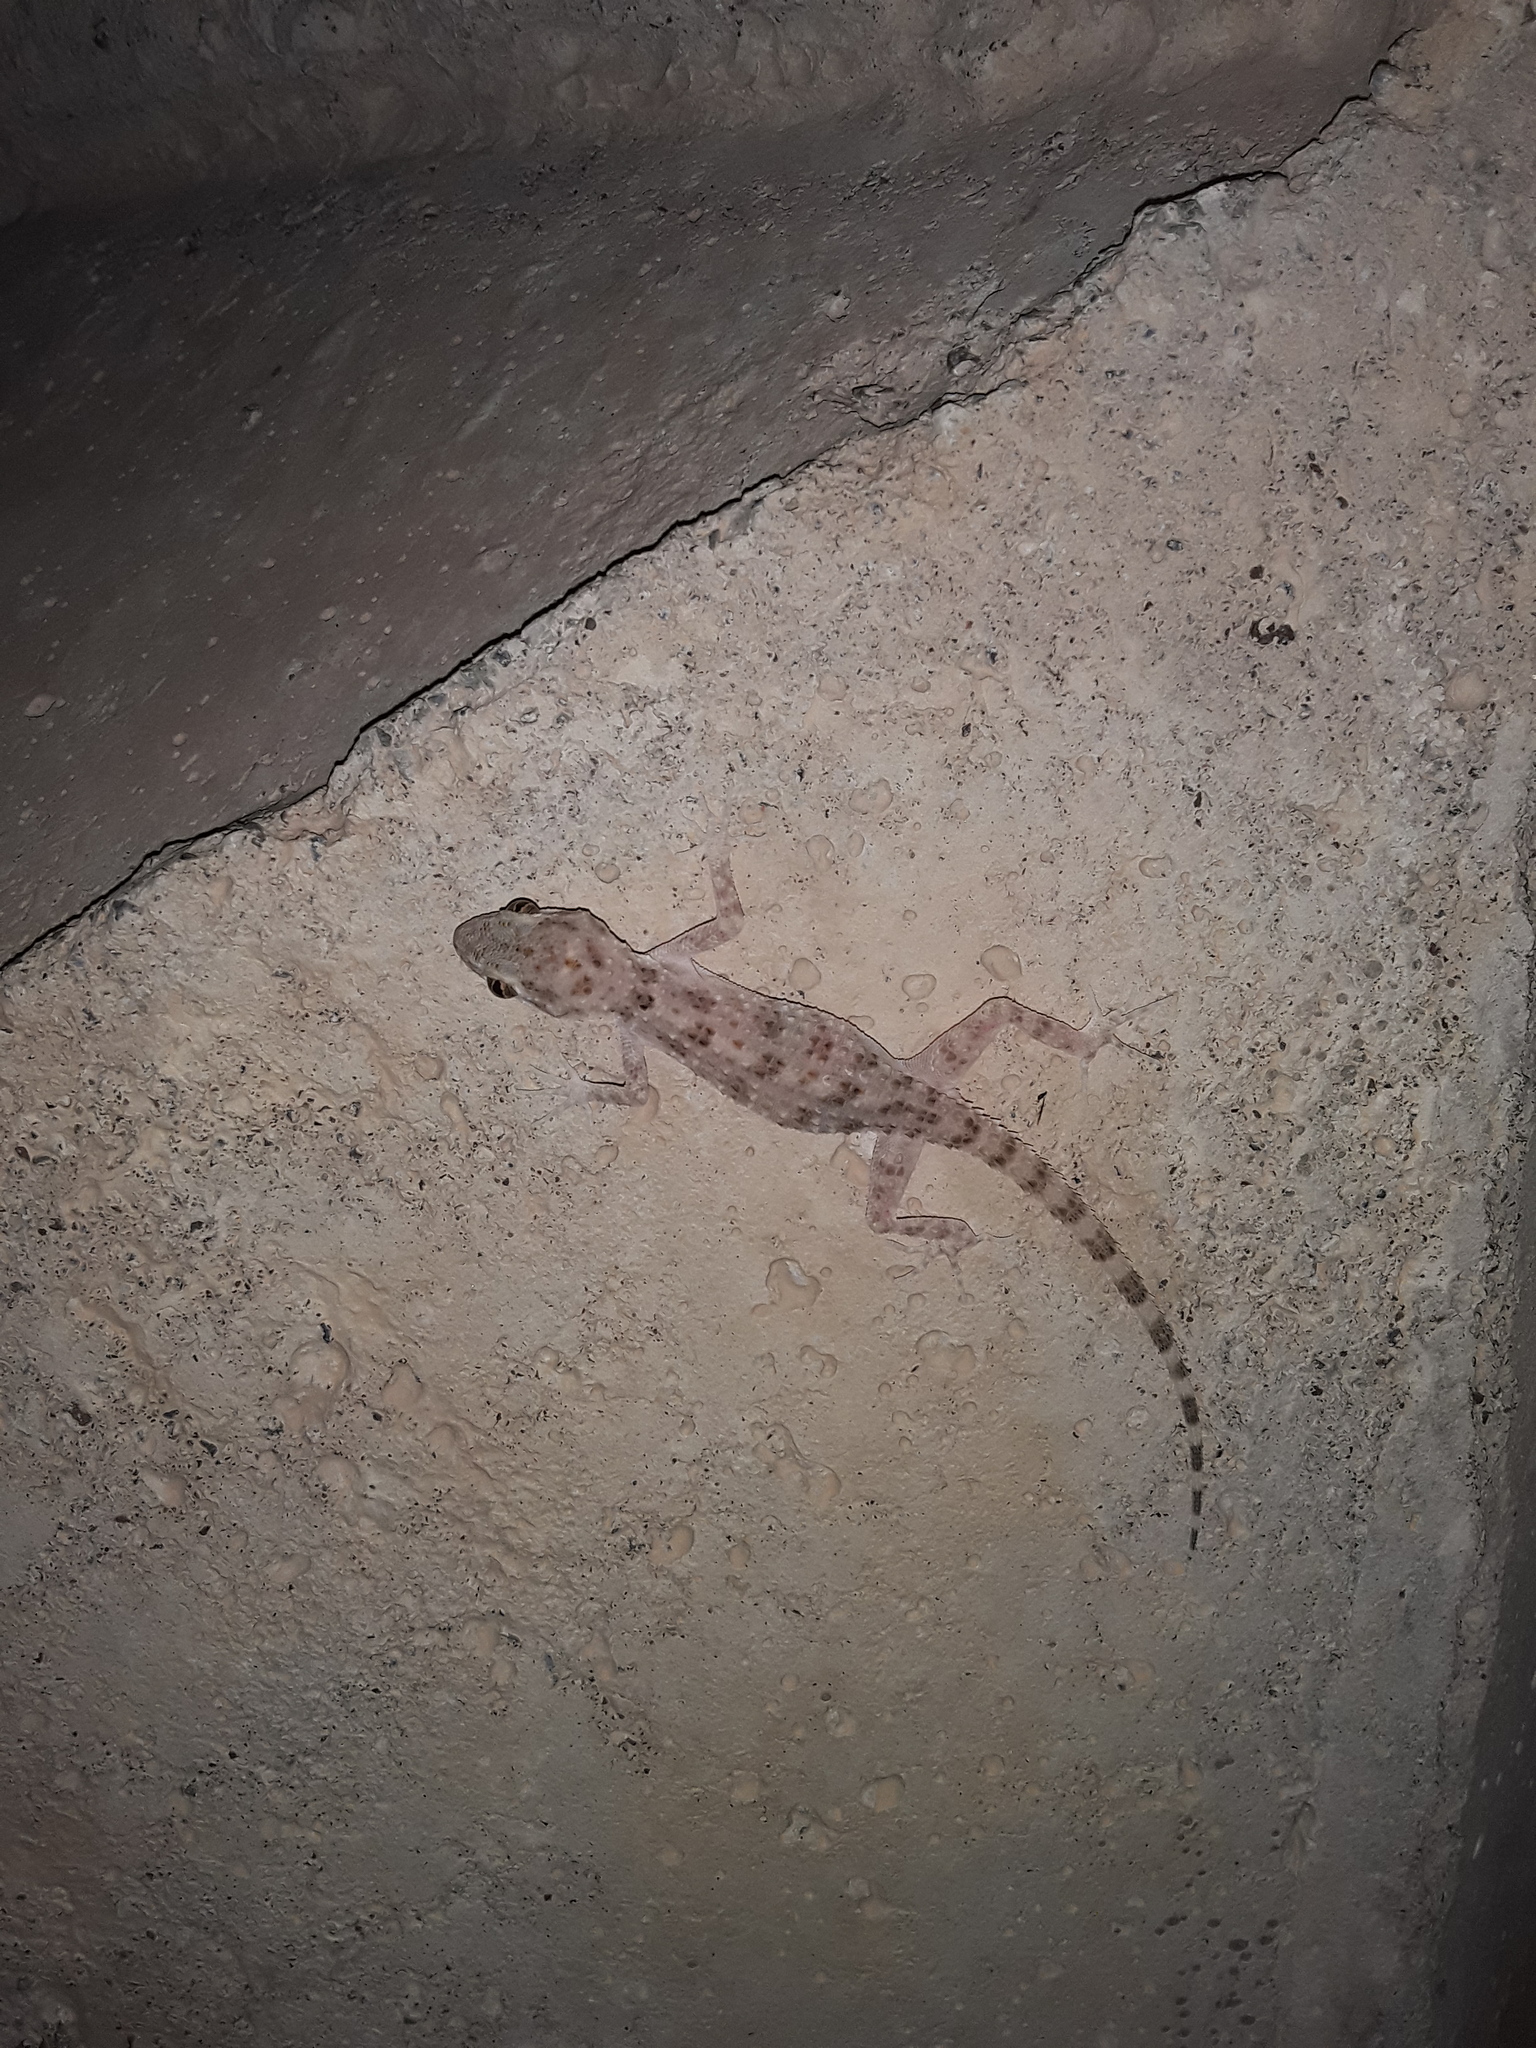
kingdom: Animalia
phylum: Chordata
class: Squamata
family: Gekkonidae
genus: Cyrtopodion
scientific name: Cyrtopodion scabrum
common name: Rough-tailed gecko
